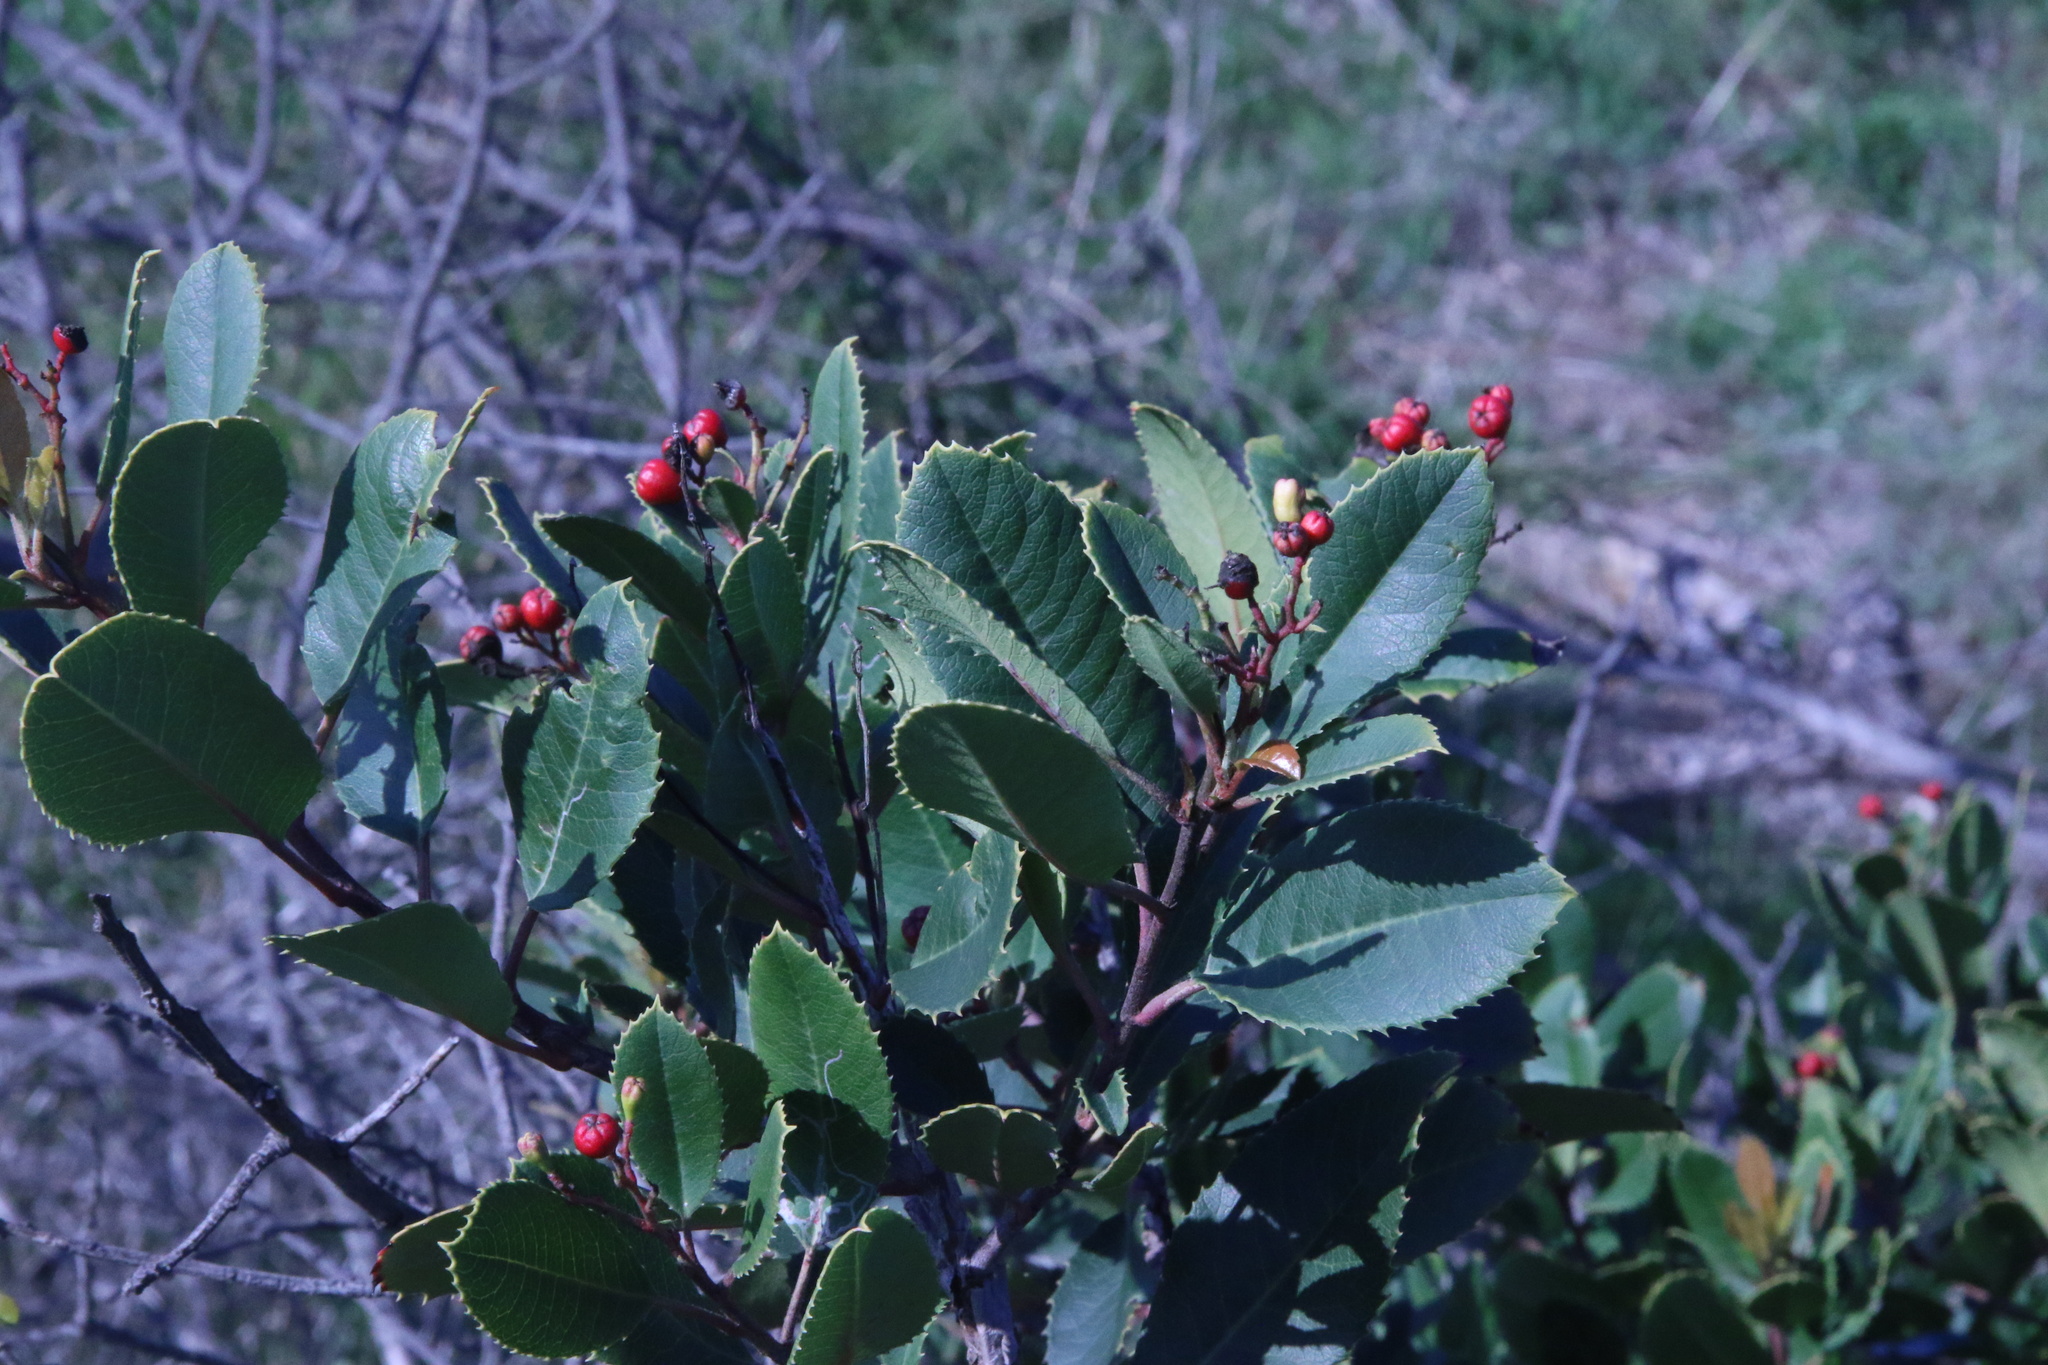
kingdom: Plantae
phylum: Tracheophyta
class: Magnoliopsida
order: Rosales
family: Rosaceae
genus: Heteromeles
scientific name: Heteromeles arbutifolia
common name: California-holly
